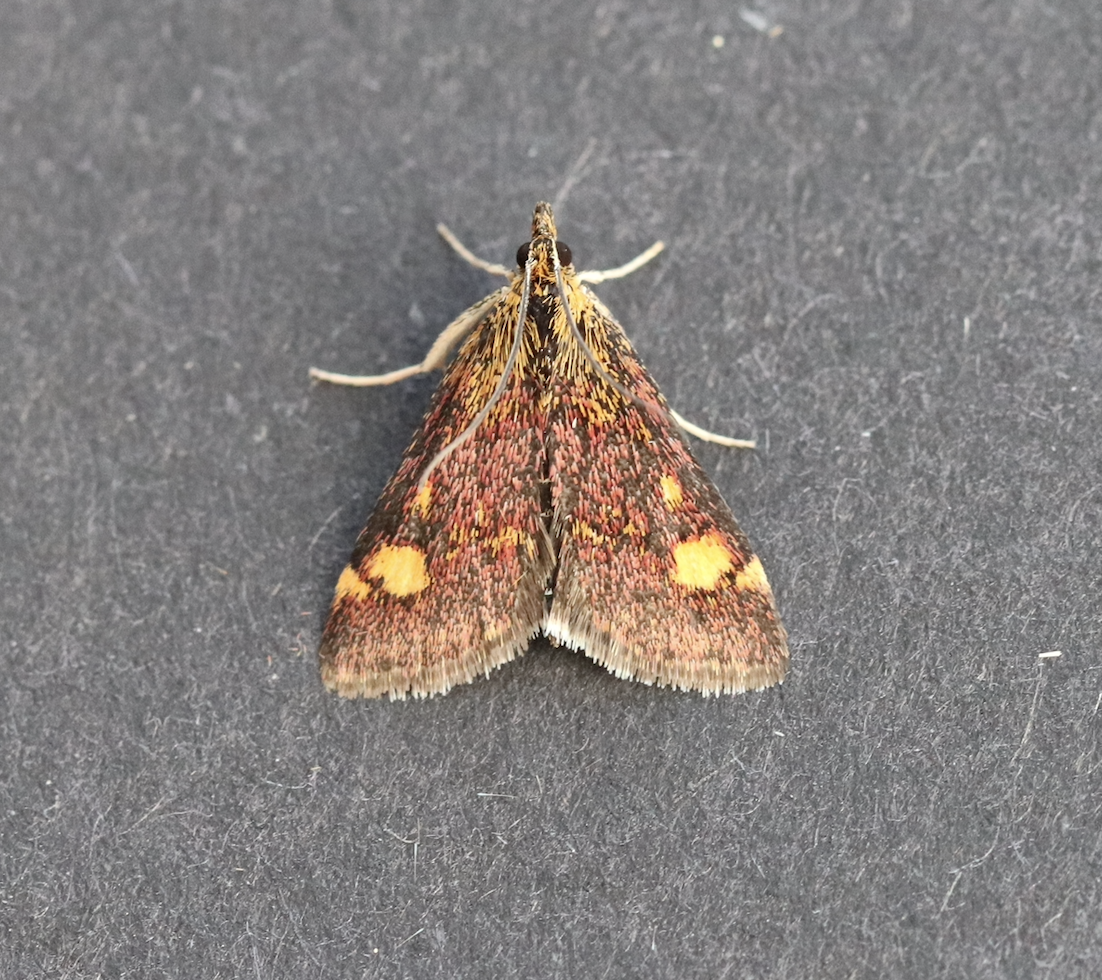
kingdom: Animalia
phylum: Arthropoda
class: Insecta
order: Lepidoptera
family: Crambidae
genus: Pyrausta
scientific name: Pyrausta aurata
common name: Small purple & gold
